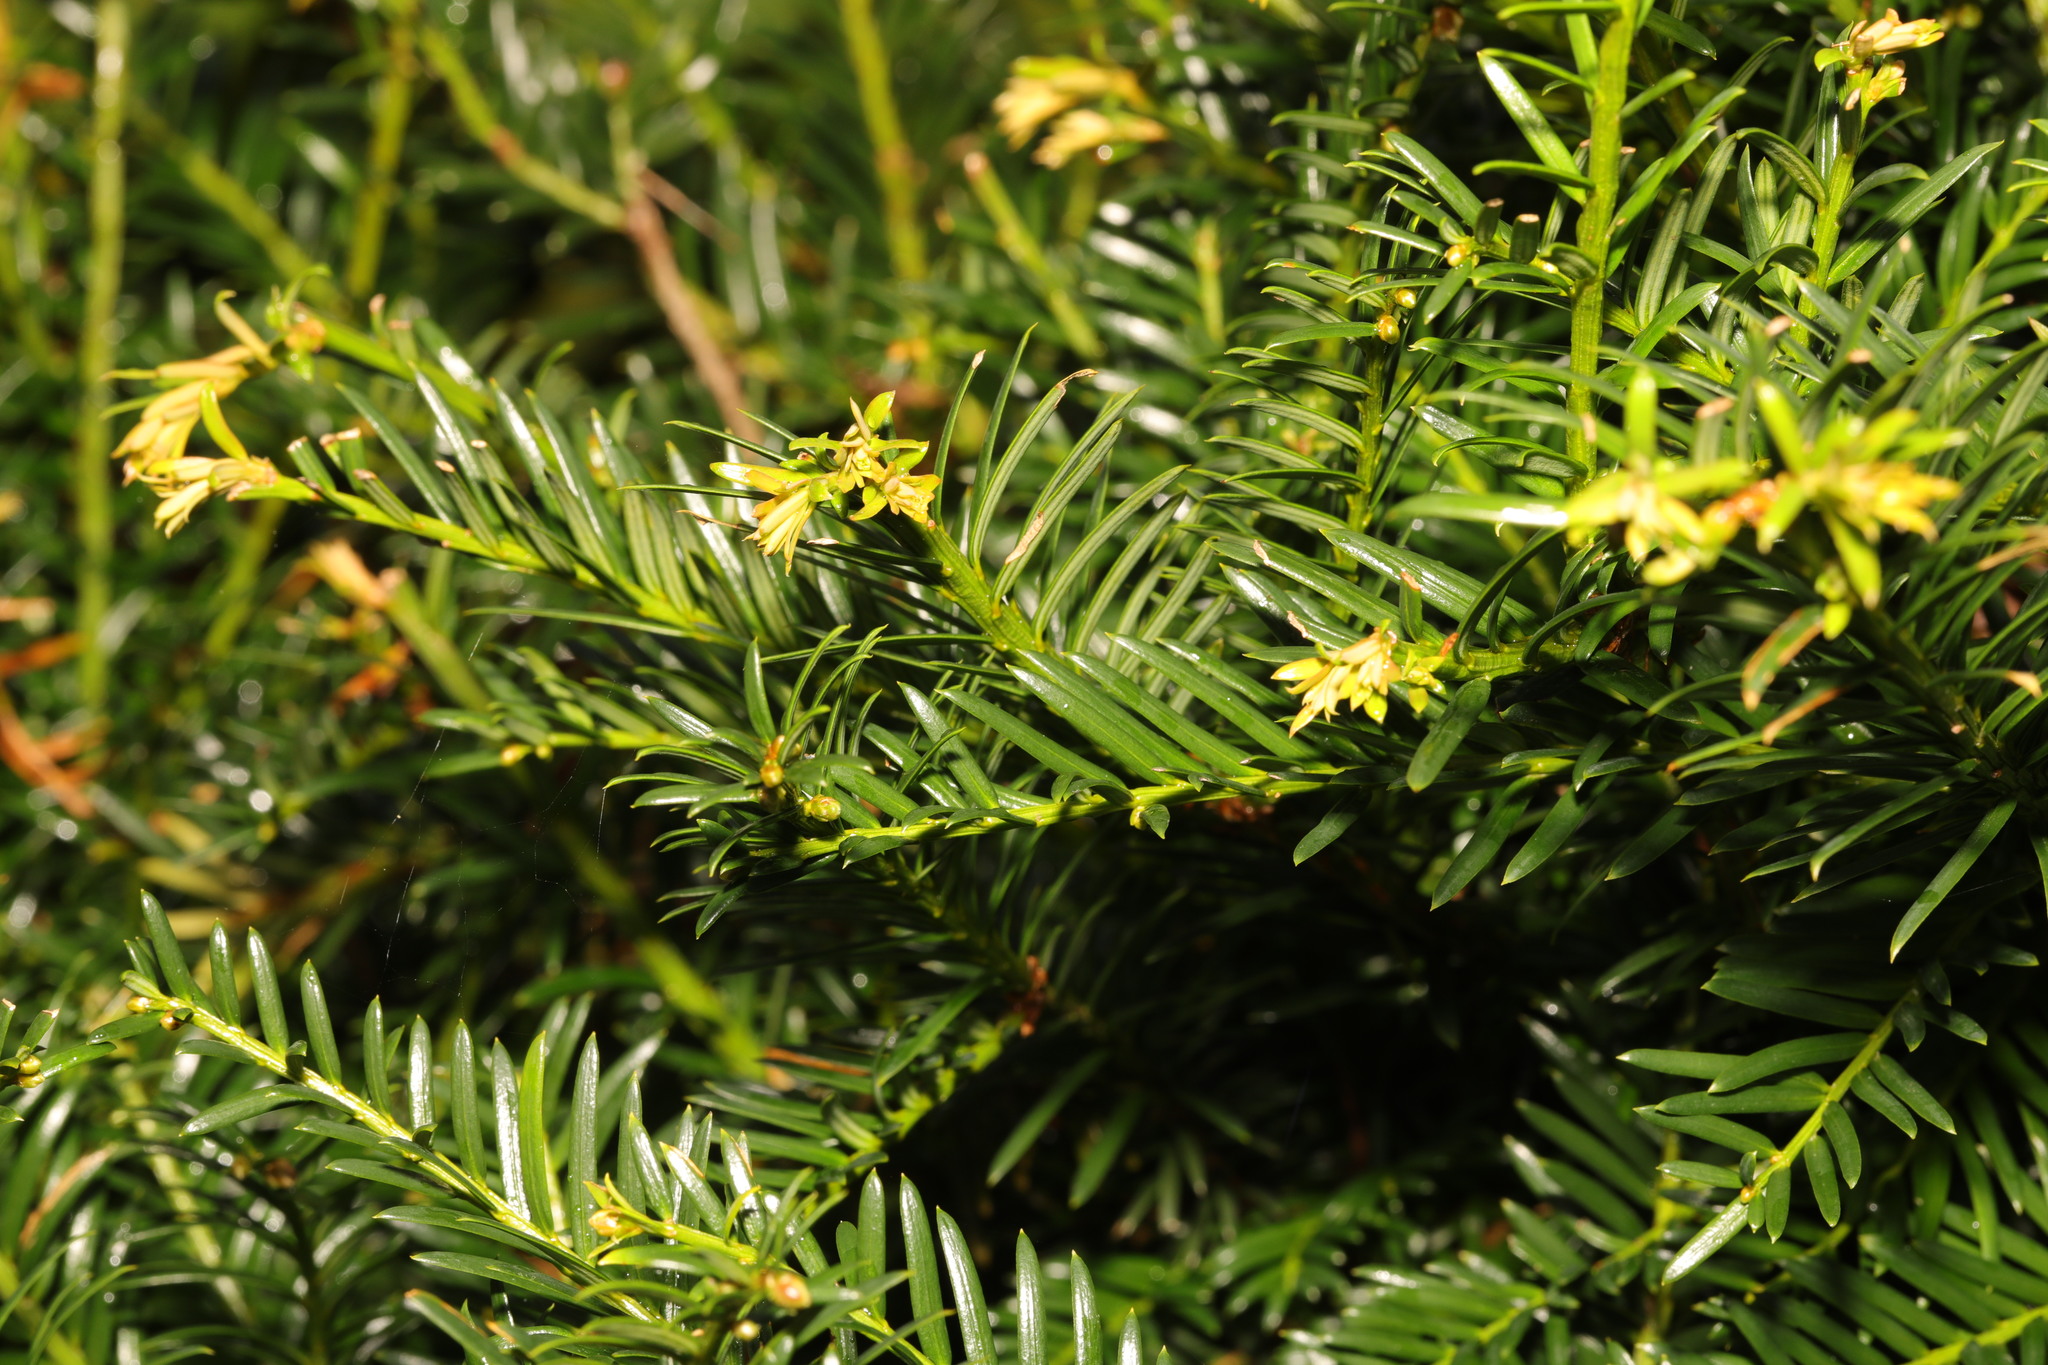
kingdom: Plantae
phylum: Tracheophyta
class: Pinopsida
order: Pinales
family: Taxaceae
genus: Taxus
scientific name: Taxus baccata
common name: Yew
